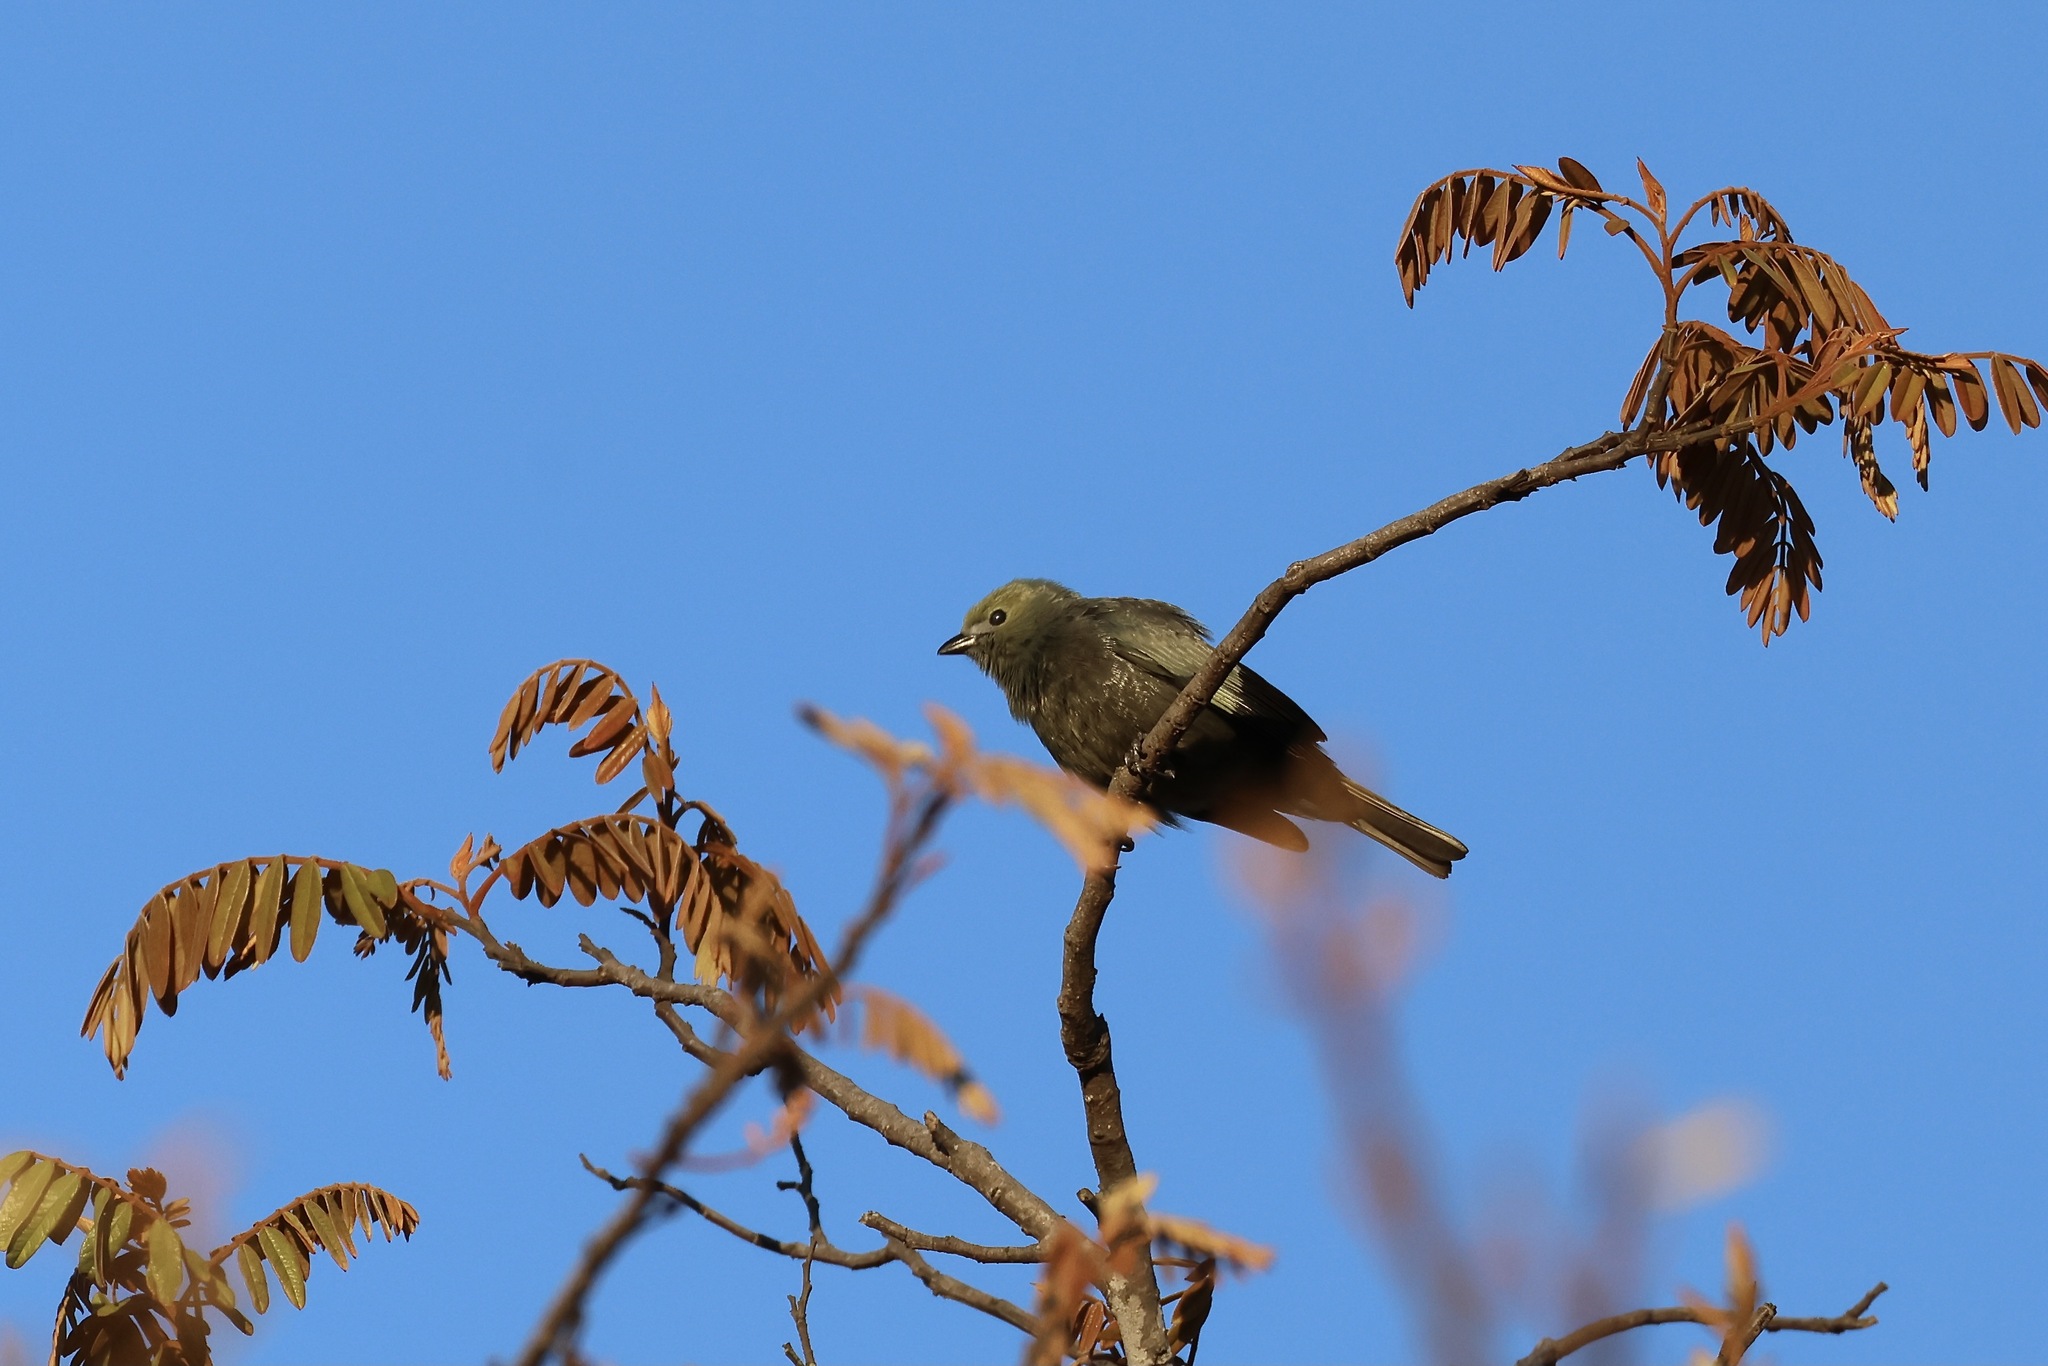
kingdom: Animalia
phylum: Chordata
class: Aves
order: Passeriformes
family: Thraupidae
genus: Thraupis
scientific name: Thraupis palmarum
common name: Palm tanager
